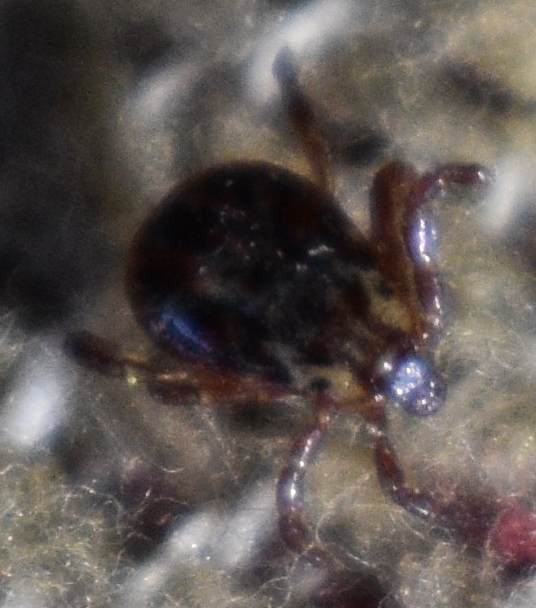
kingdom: Animalia
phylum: Arthropoda
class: Arachnida
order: Ixodida
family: Ixodidae
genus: Dermacentor
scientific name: Dermacentor variabilis
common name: American dog tick
